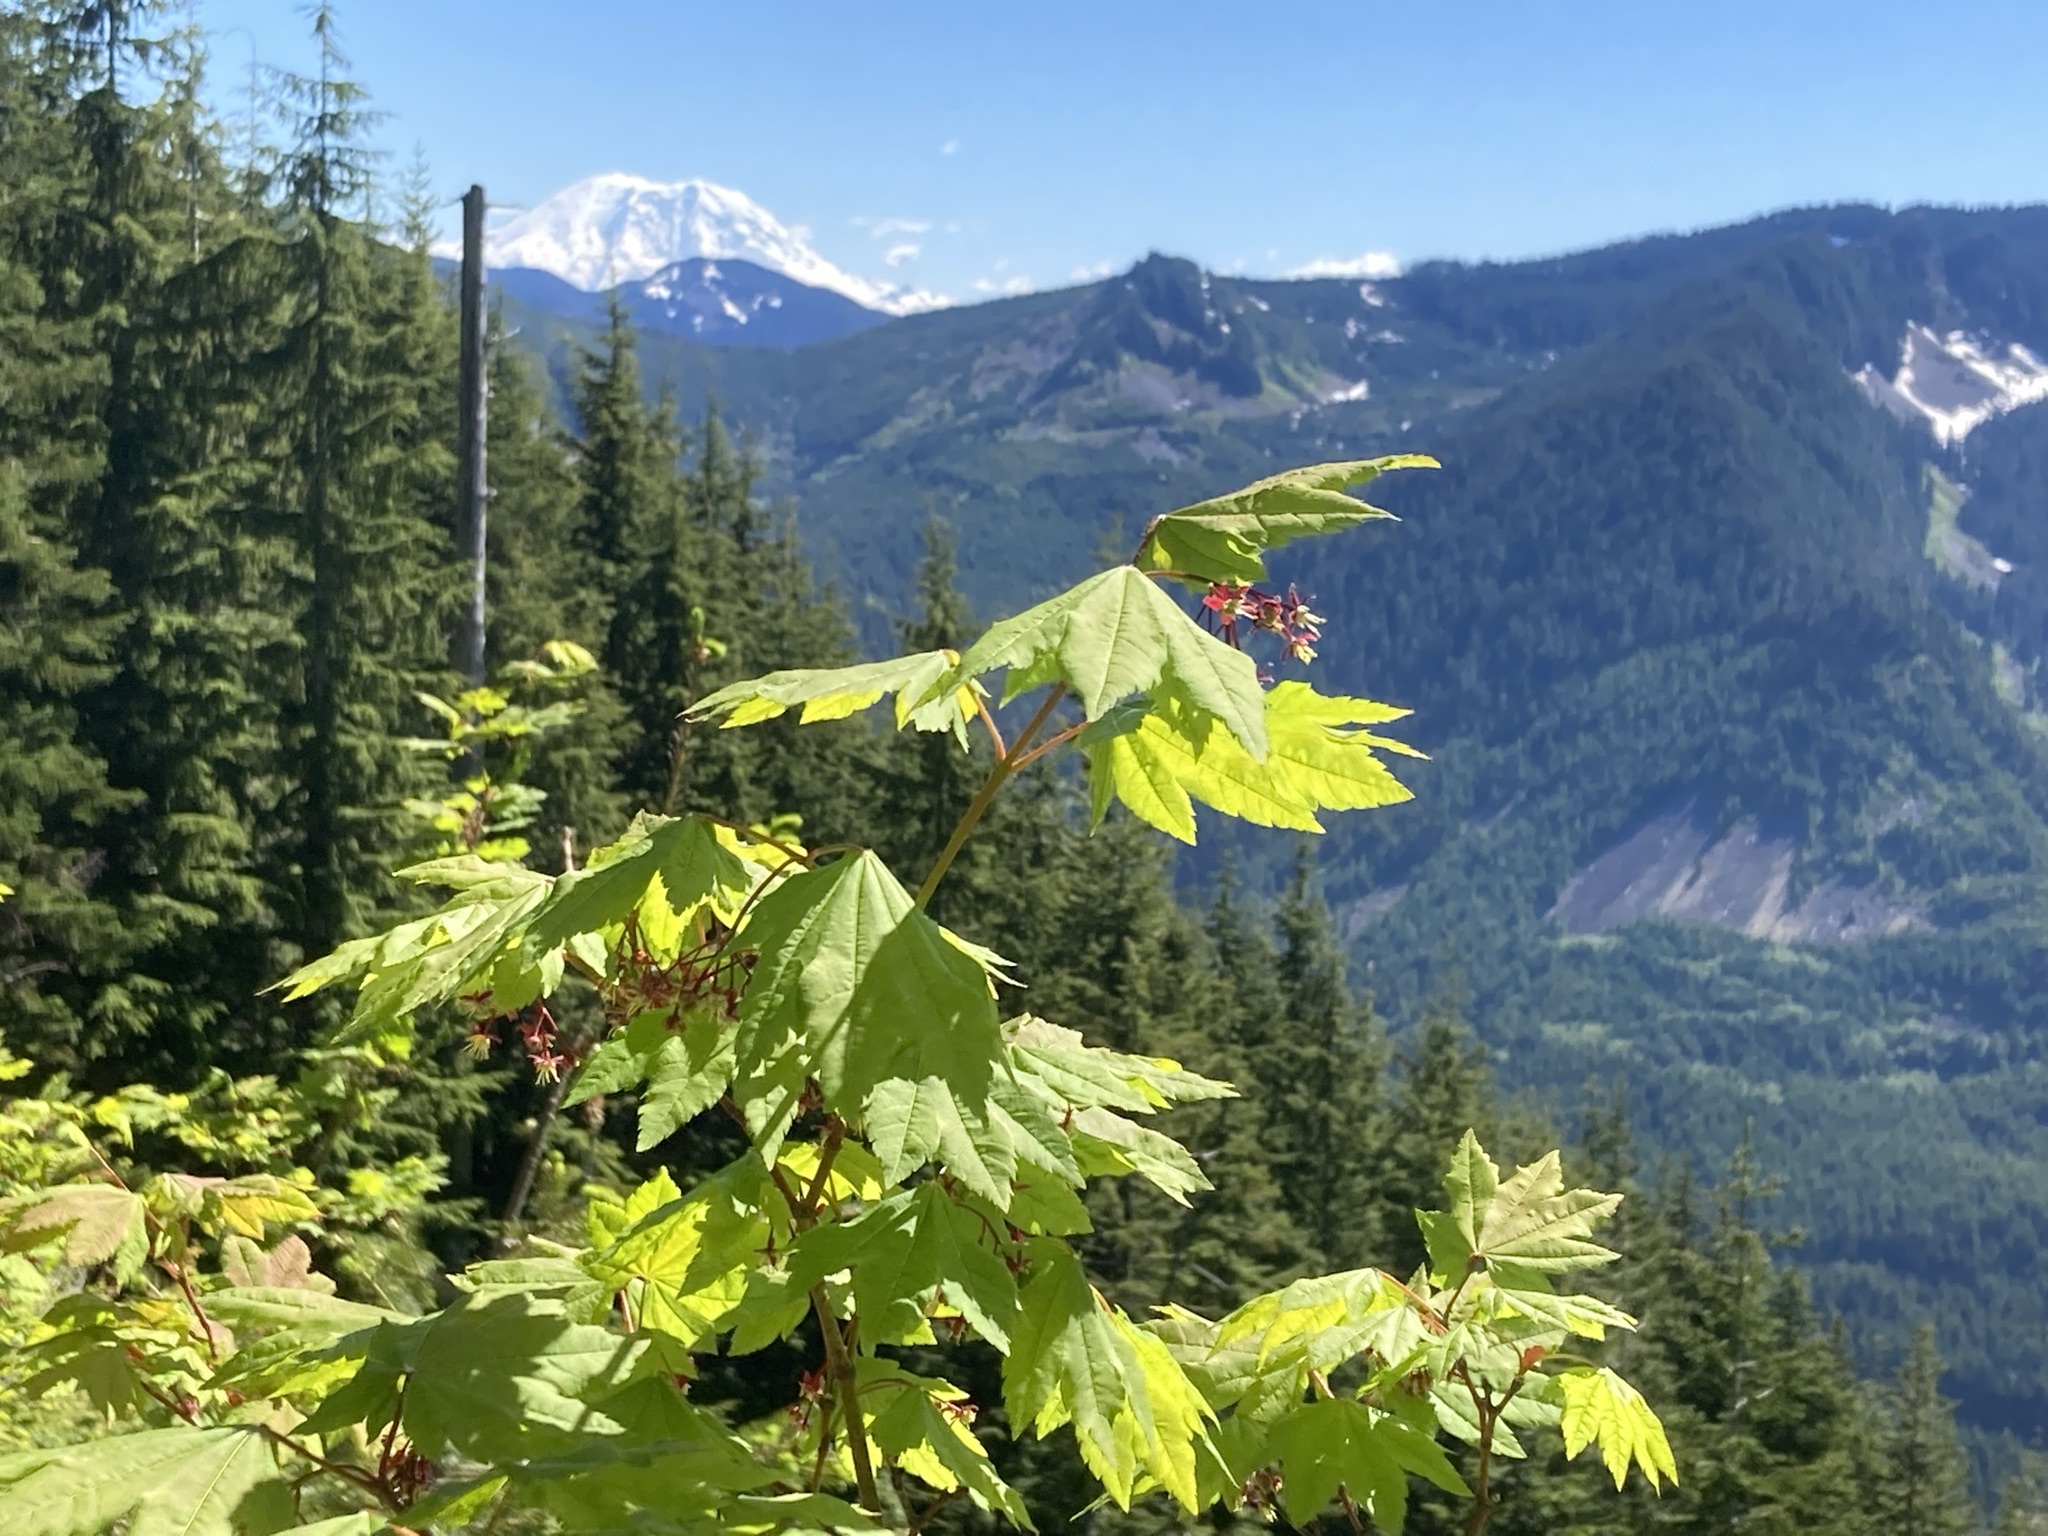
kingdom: Plantae
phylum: Tracheophyta
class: Magnoliopsida
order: Sapindales
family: Sapindaceae
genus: Acer
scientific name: Acer circinatum
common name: Vine maple
